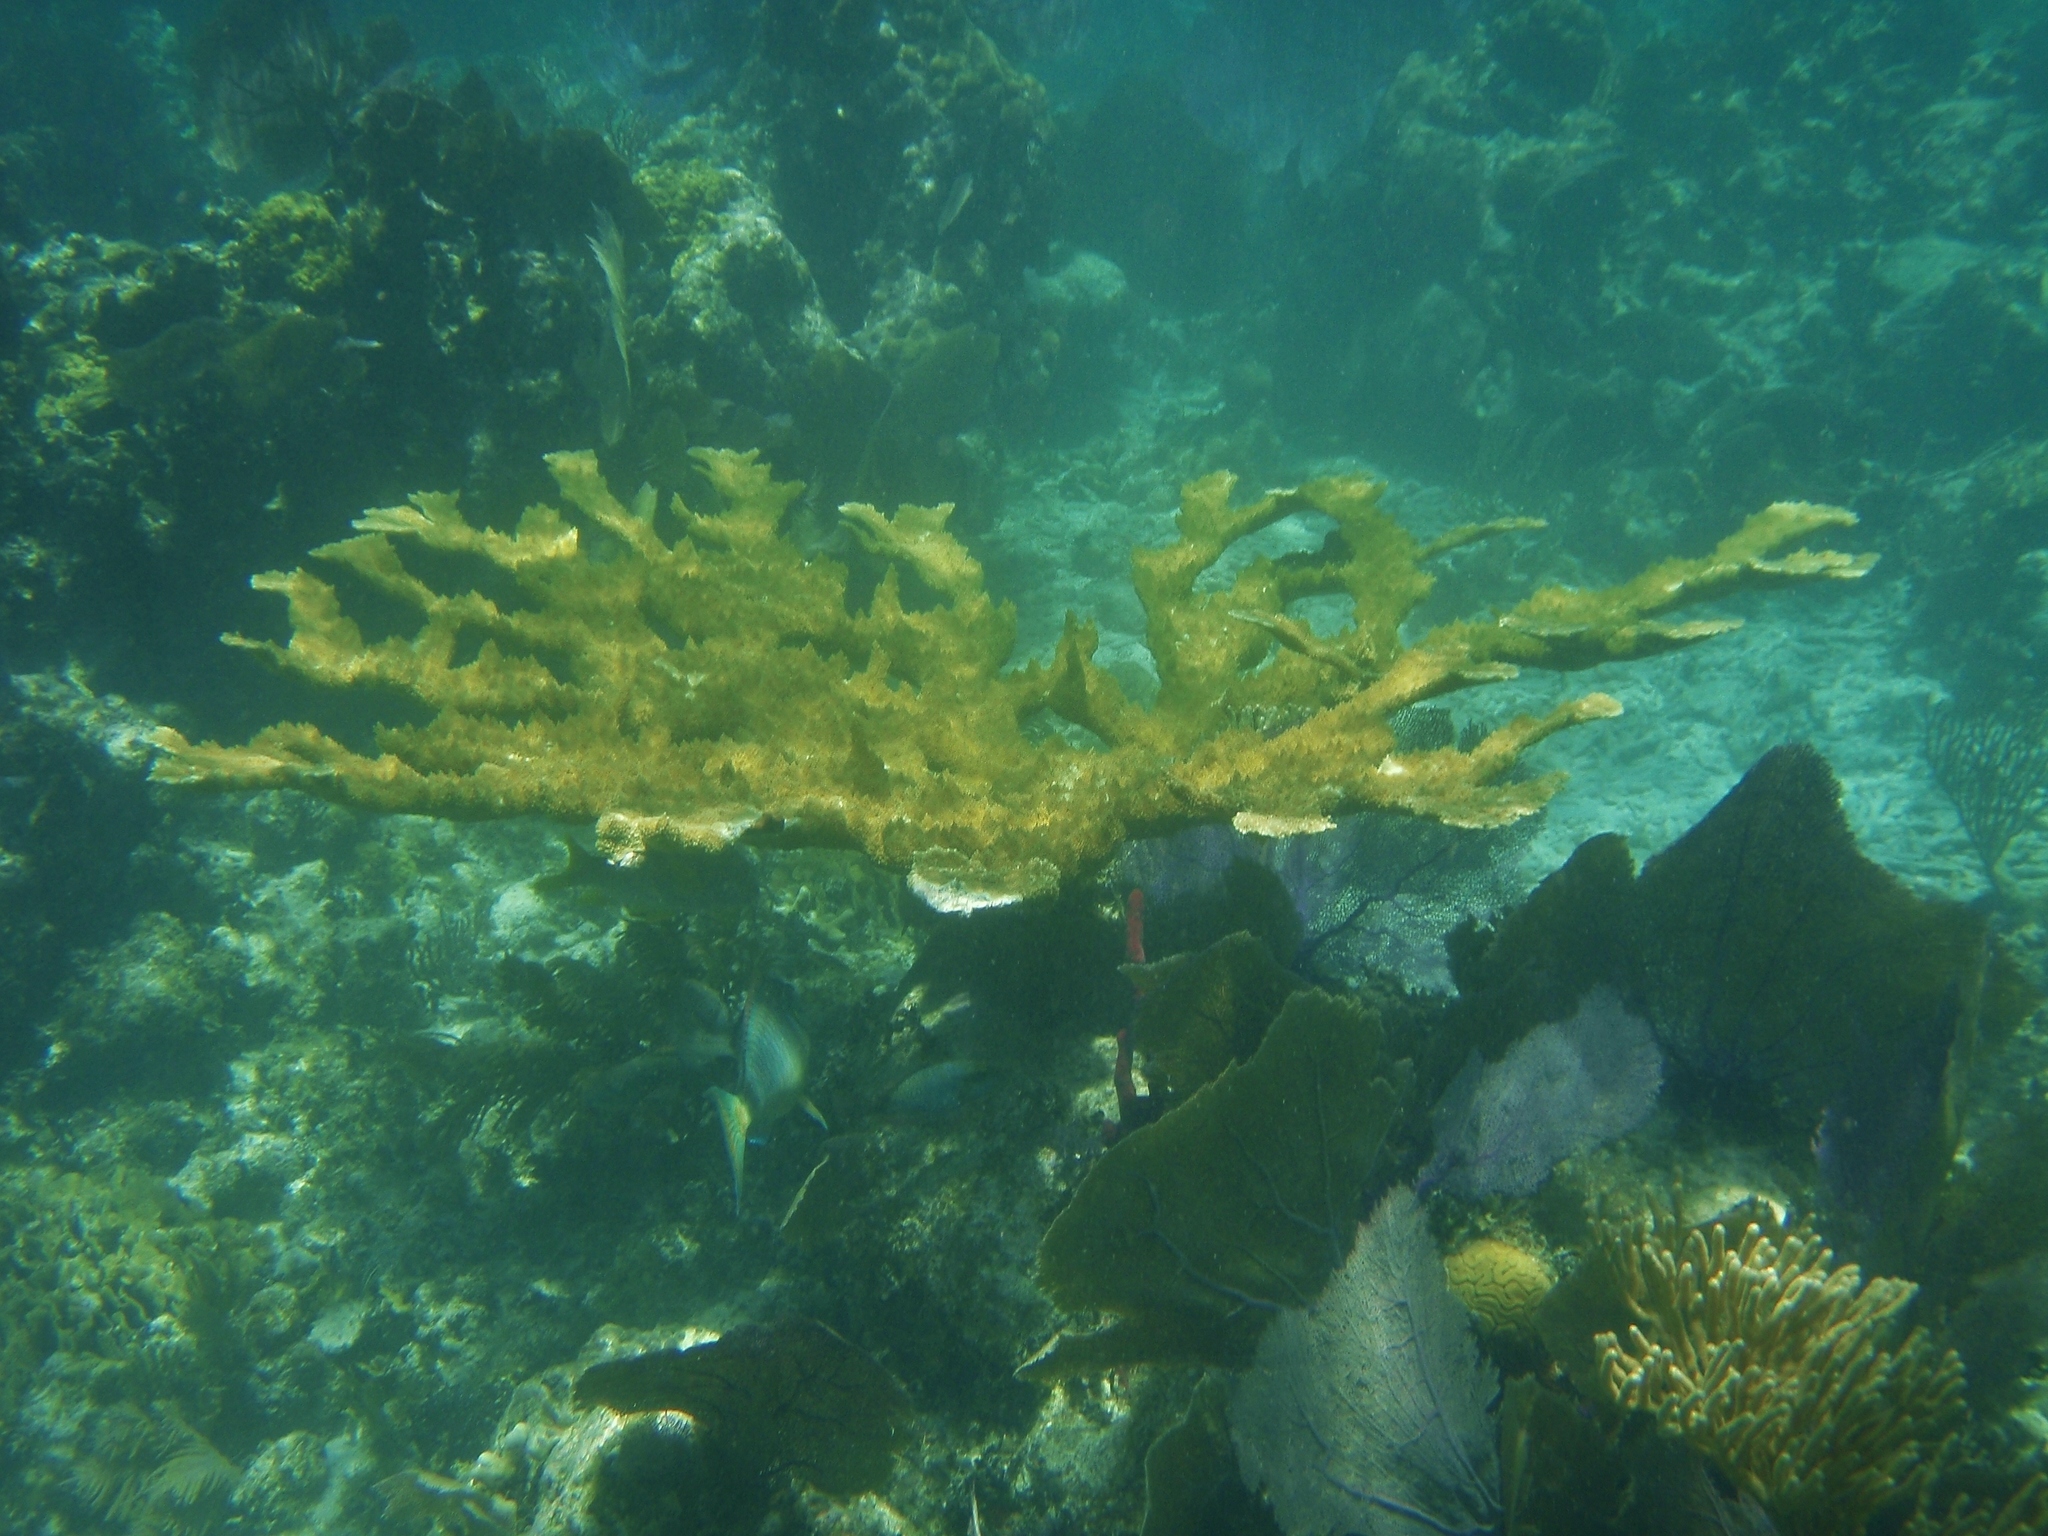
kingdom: Animalia
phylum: Cnidaria
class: Anthozoa
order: Scleractinia
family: Acroporidae
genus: Acropora
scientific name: Acropora palmata
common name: Elkhorn coral
